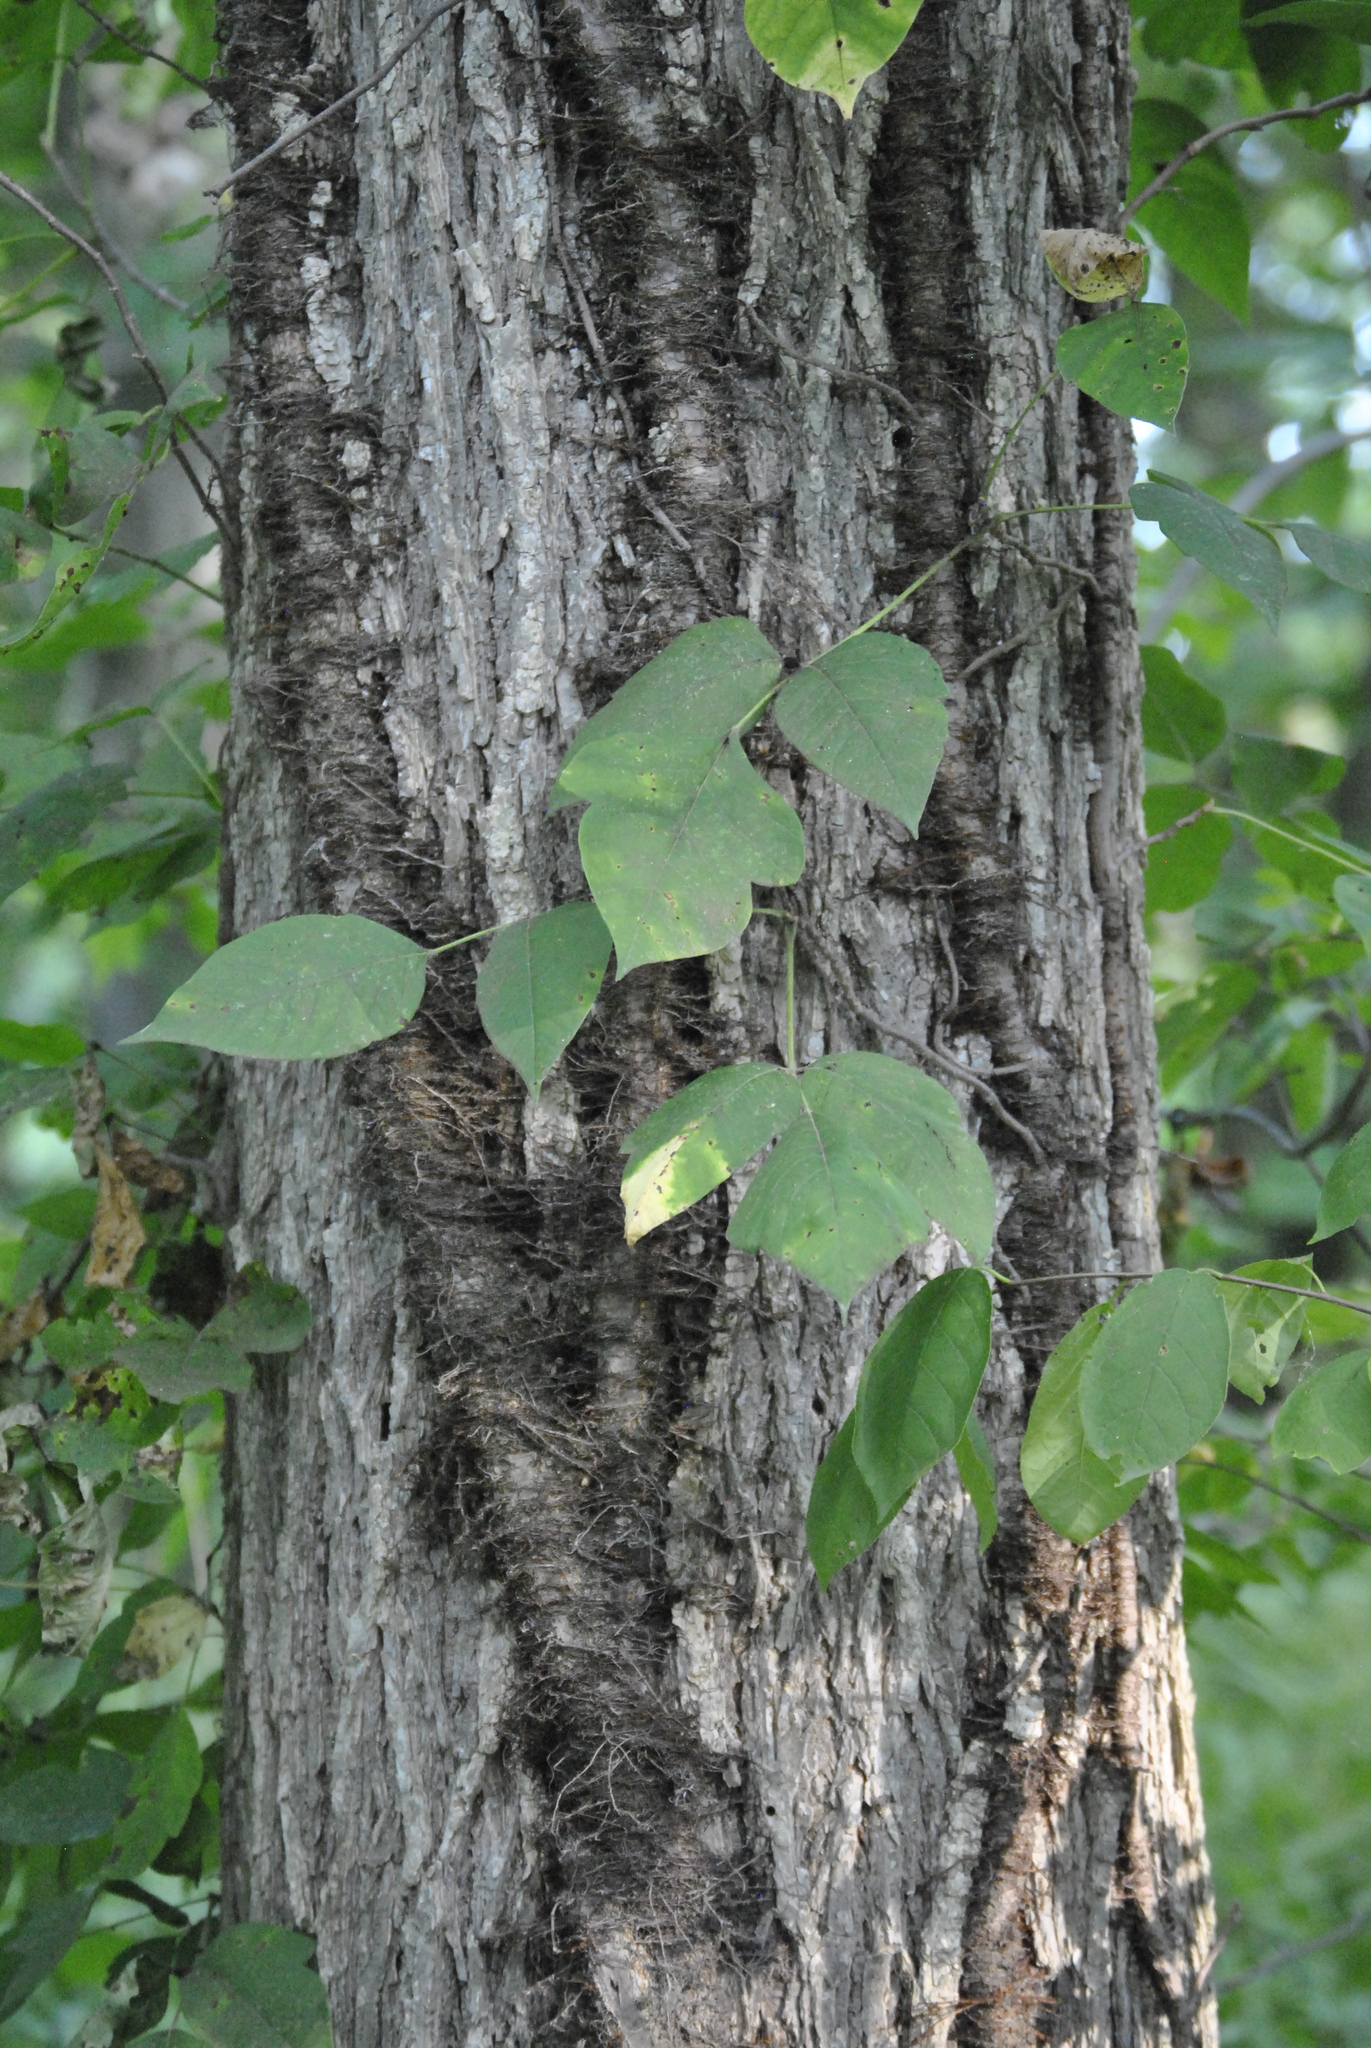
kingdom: Plantae
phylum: Tracheophyta
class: Magnoliopsida
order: Sapindales
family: Anacardiaceae
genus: Toxicodendron
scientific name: Toxicodendron radicans
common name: Poison ivy
